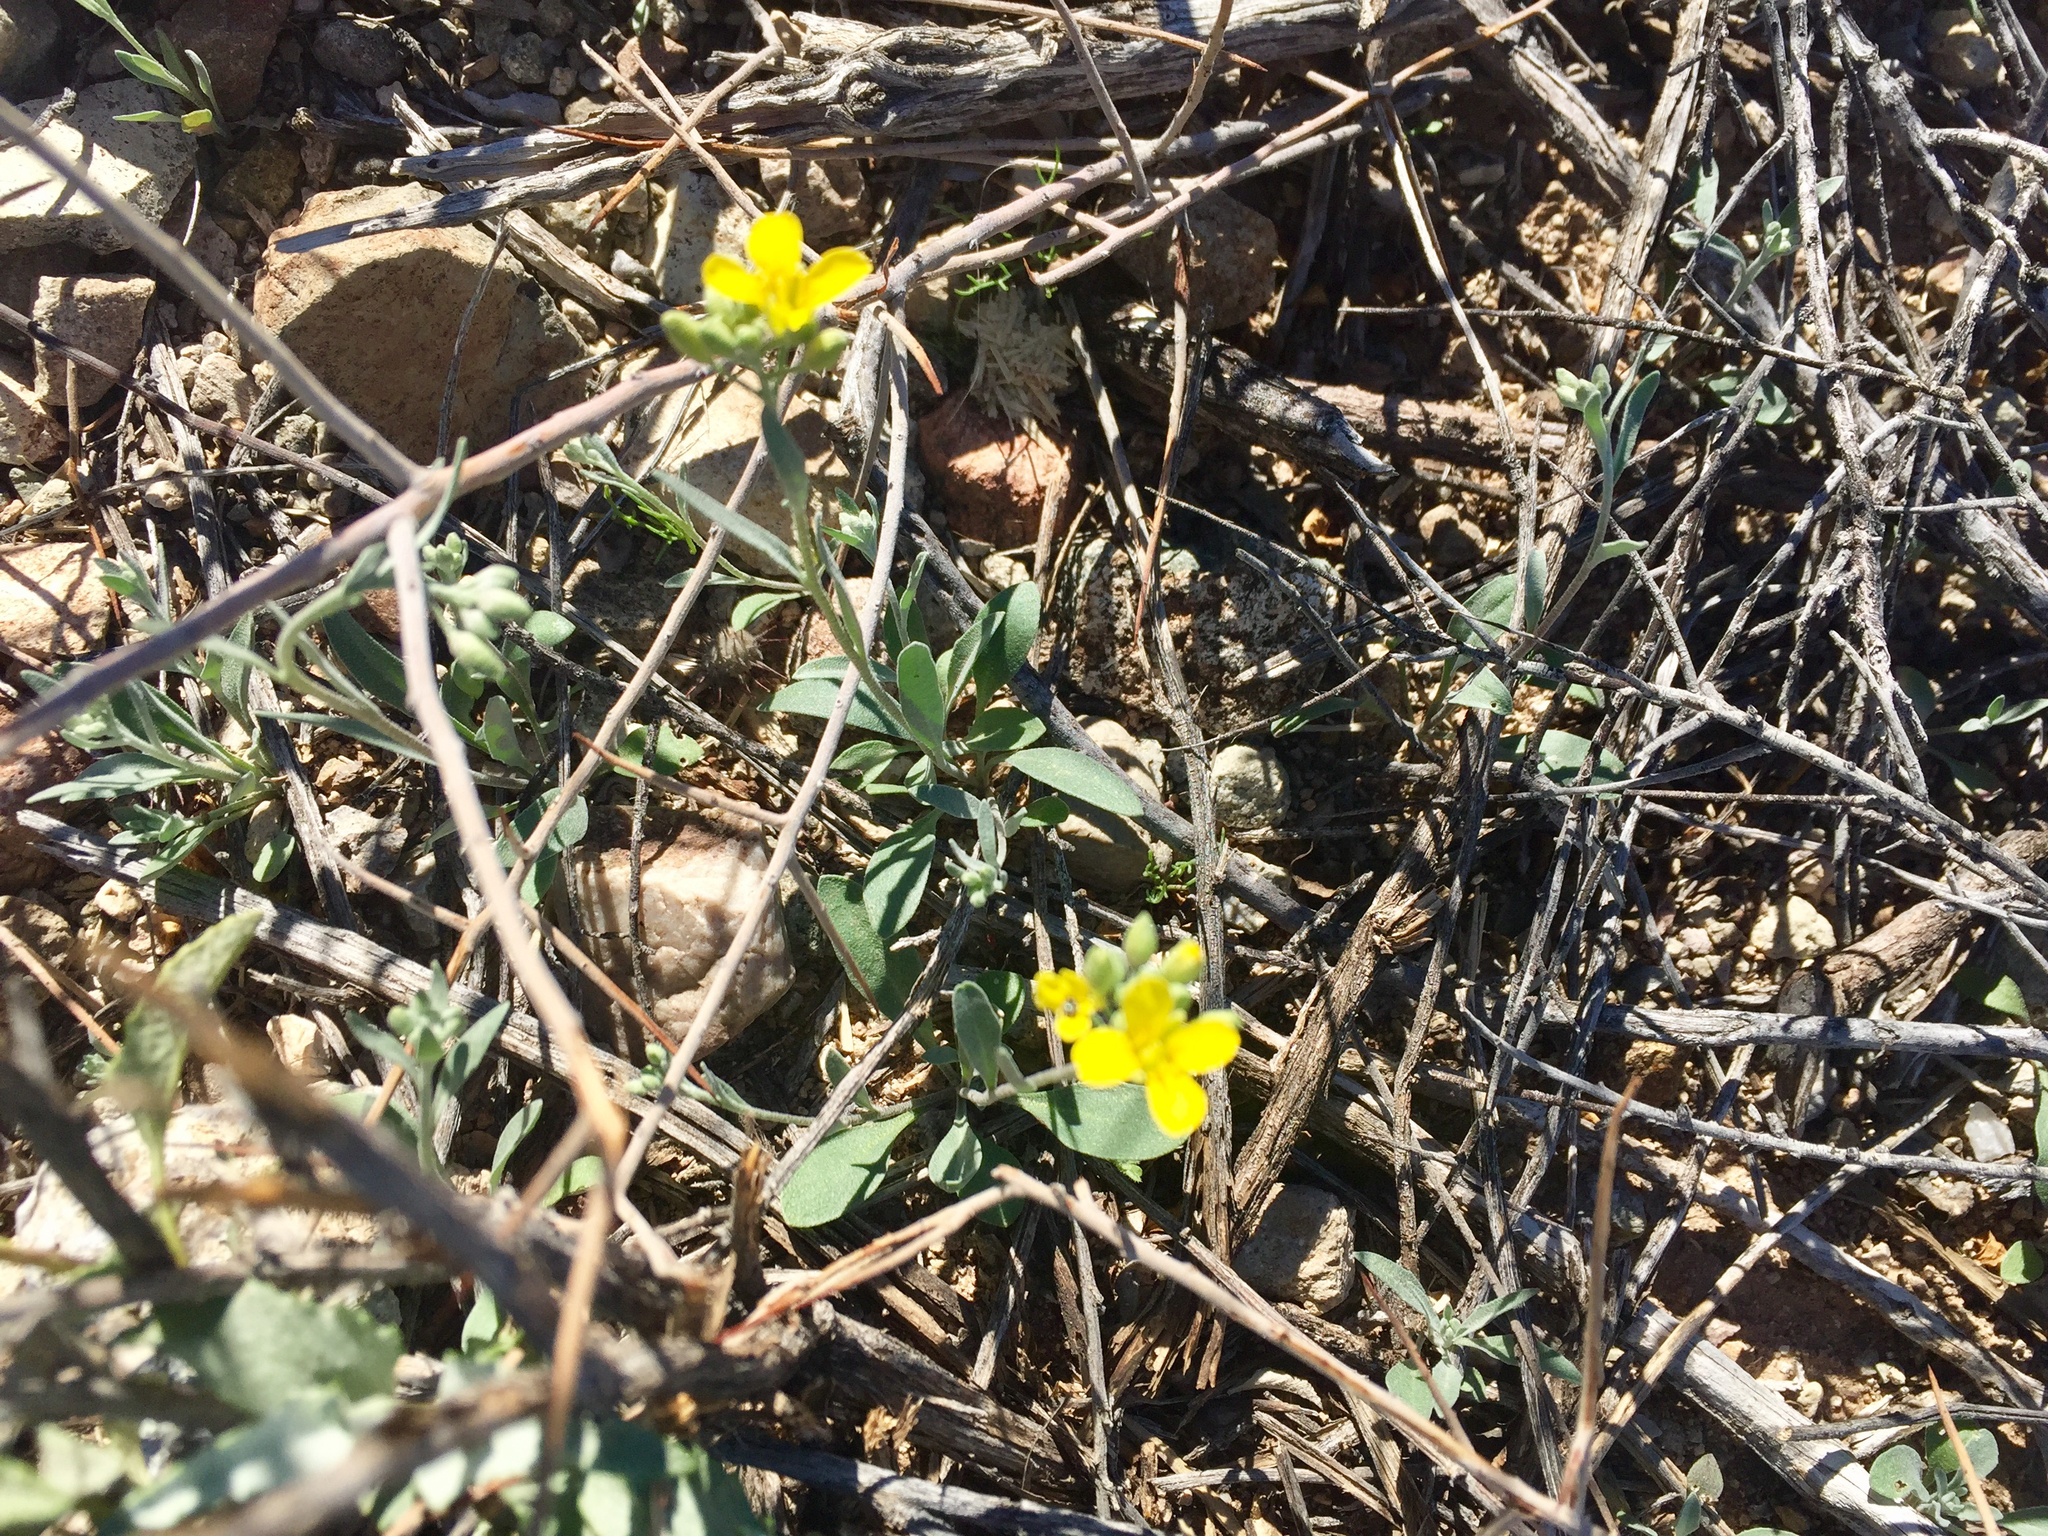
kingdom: Plantae
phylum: Tracheophyta
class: Magnoliopsida
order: Brassicales
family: Brassicaceae
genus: Physaria
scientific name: Physaria gordonii
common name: Gordon's bladderpod
